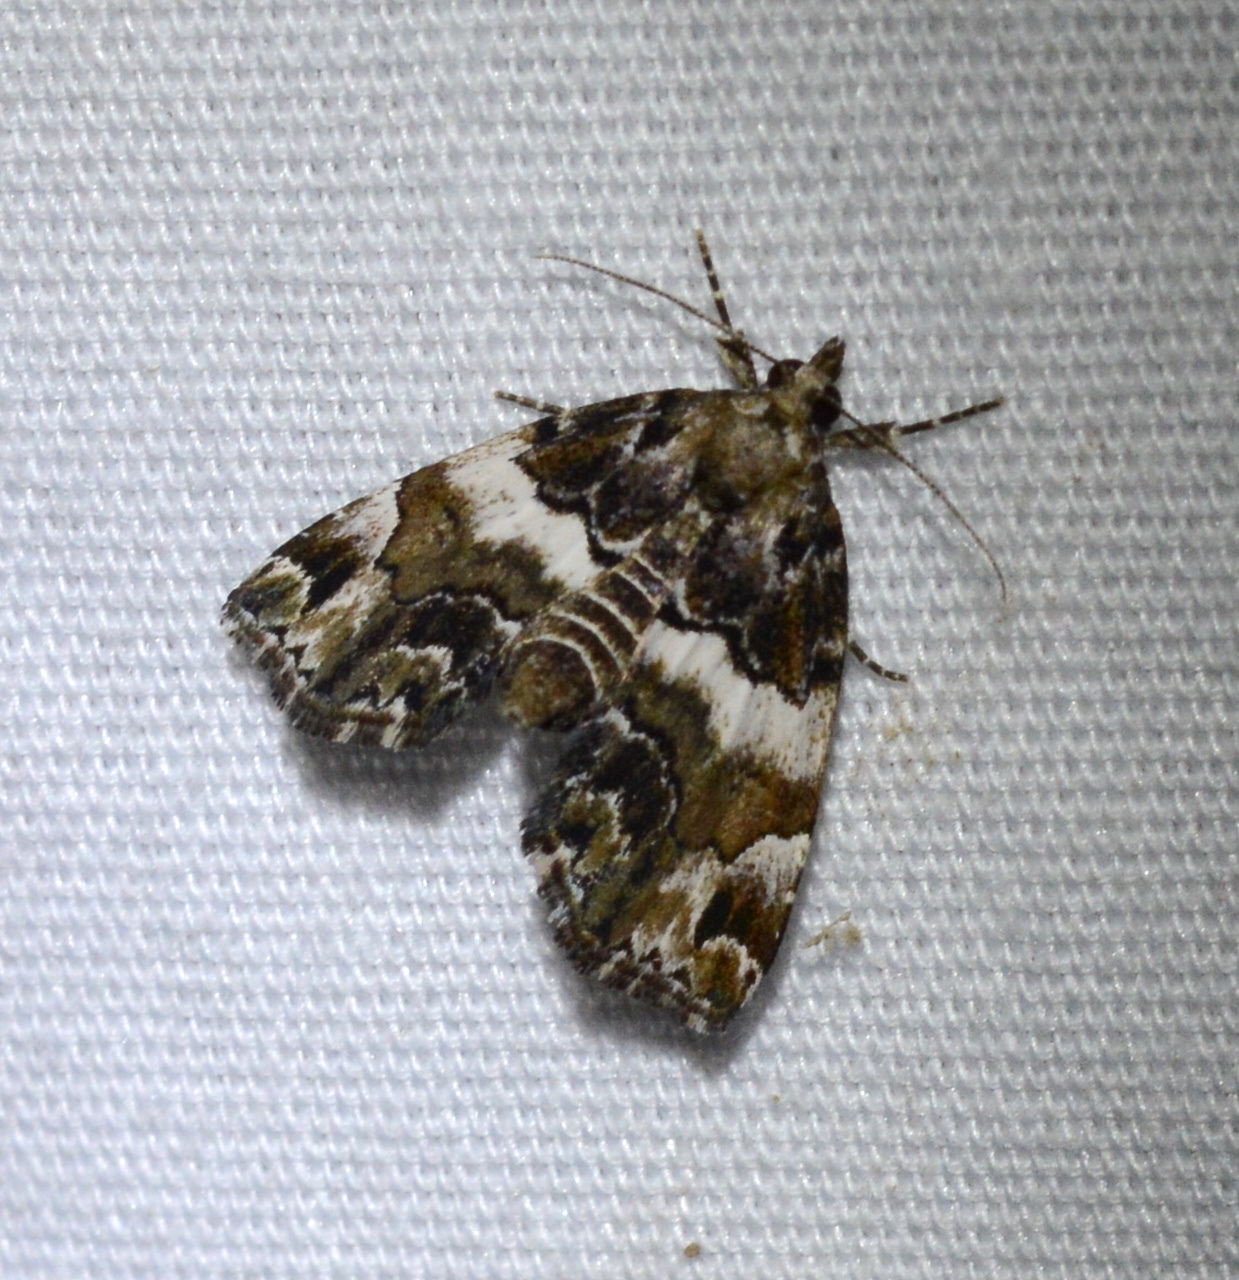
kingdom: Animalia
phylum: Arthropoda
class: Insecta
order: Lepidoptera
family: Erebidae
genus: Cutina
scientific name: Cutina distincta
